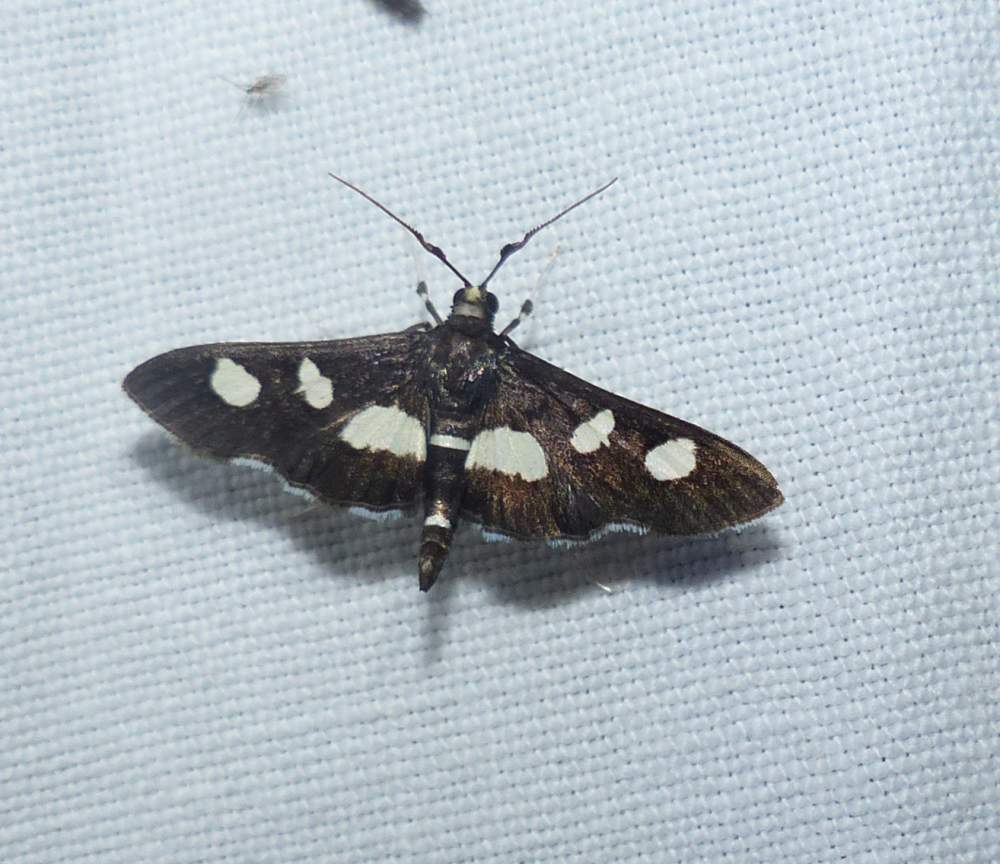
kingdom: Animalia
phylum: Arthropoda
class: Insecta
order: Lepidoptera
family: Crambidae
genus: Desmia
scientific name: Desmia
